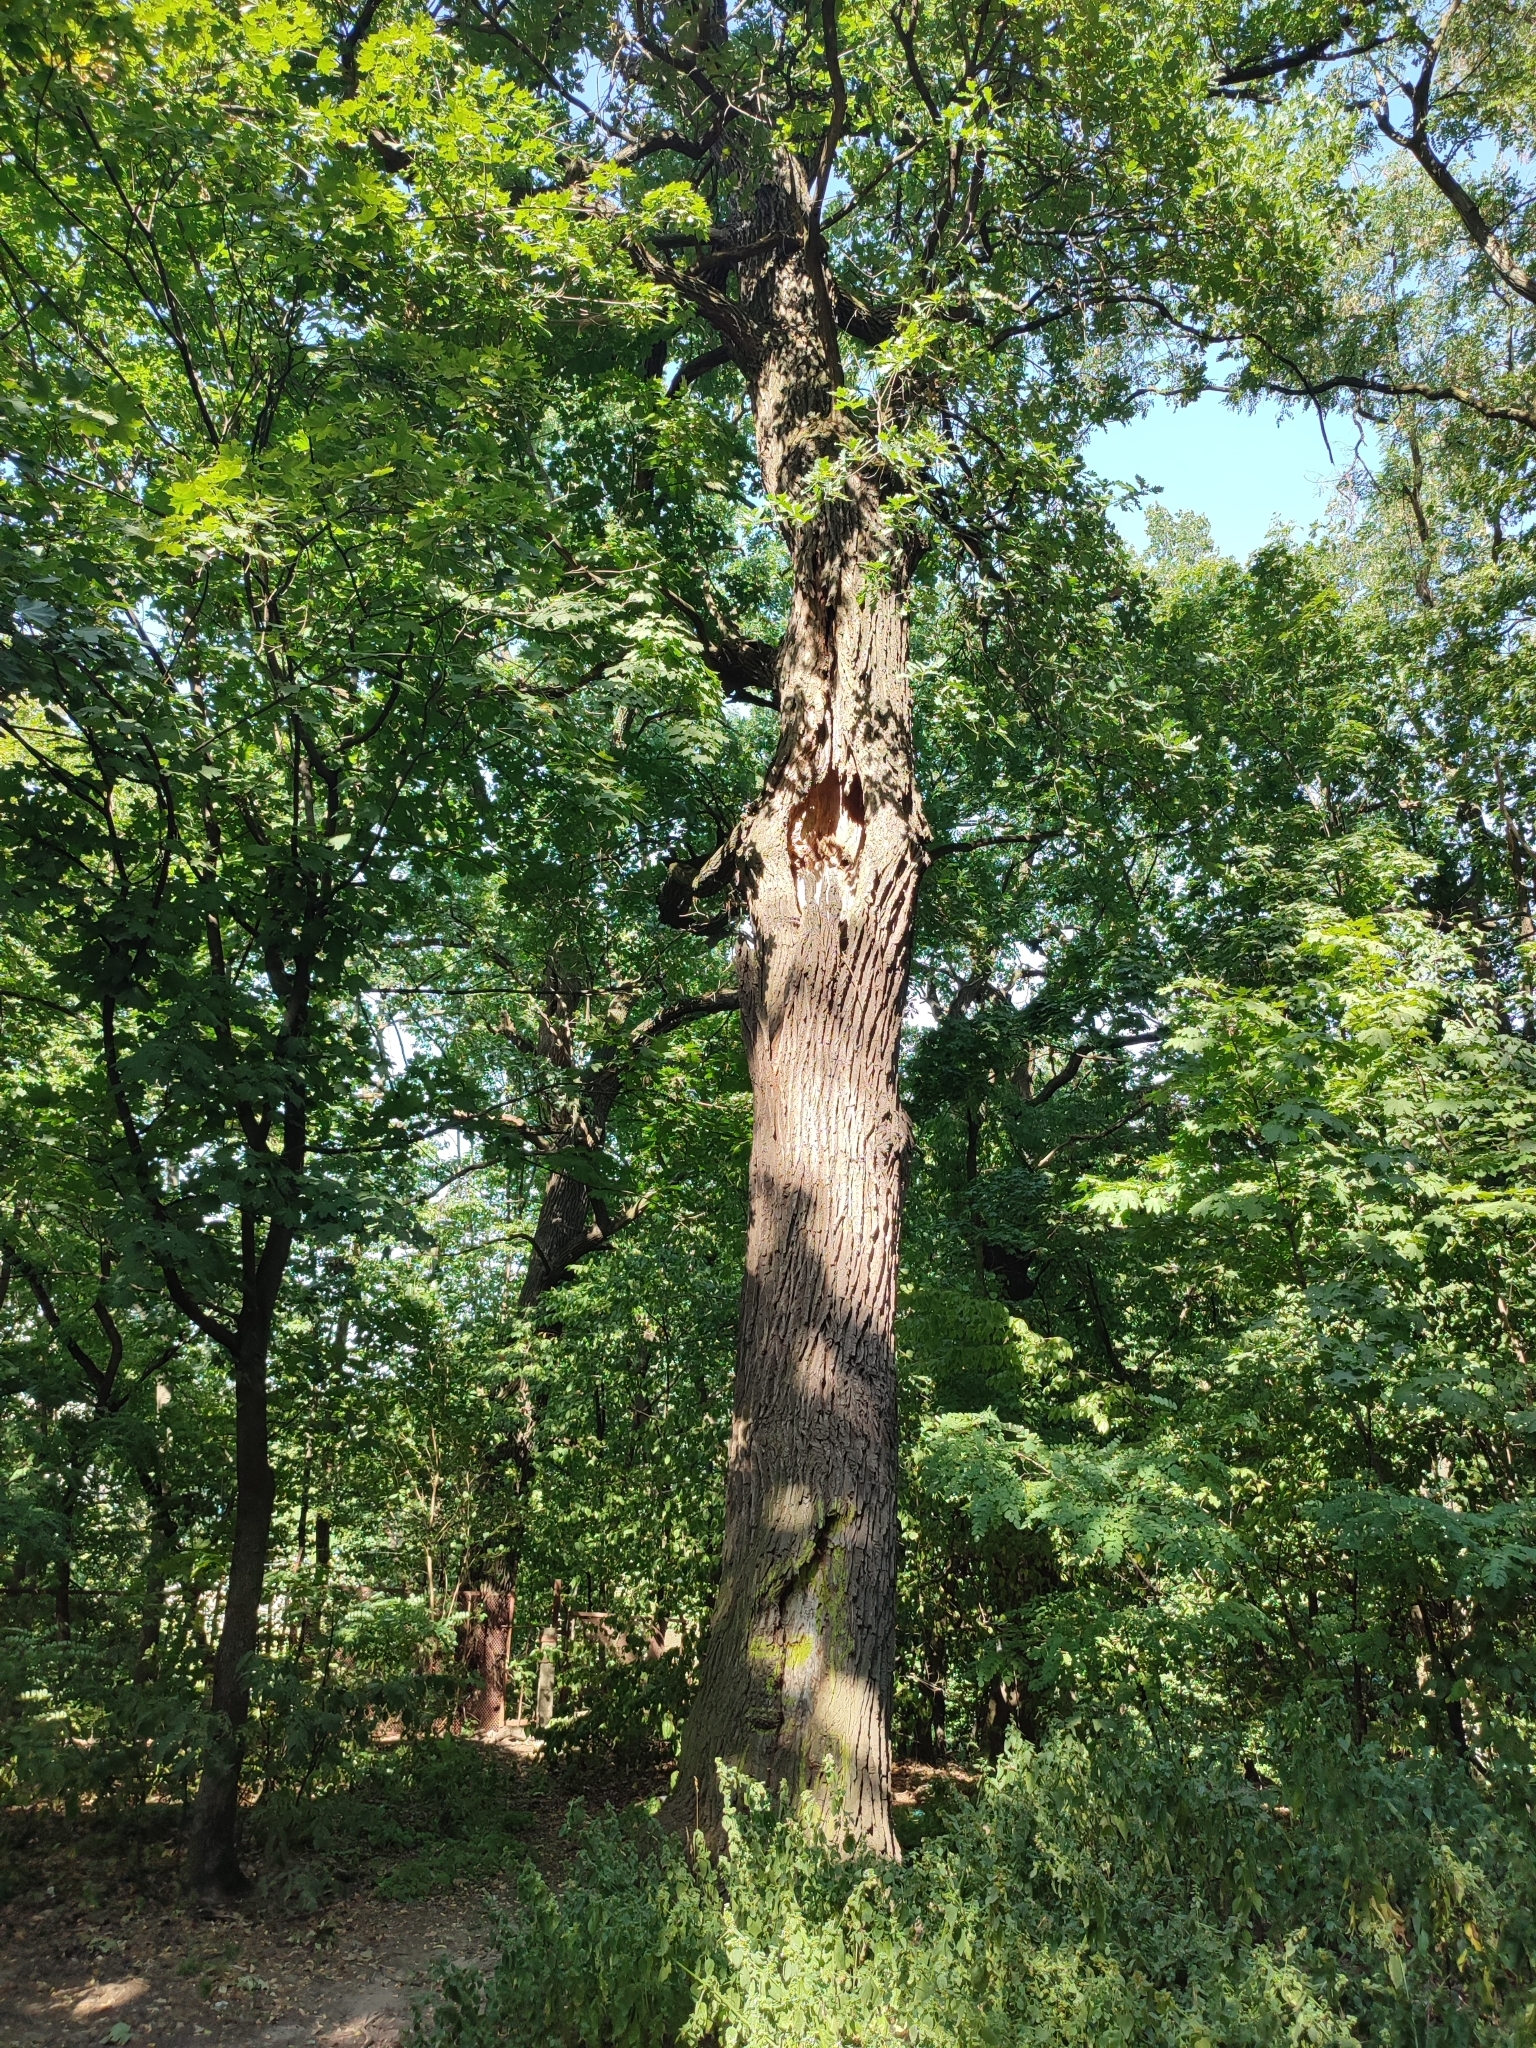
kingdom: Plantae
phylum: Tracheophyta
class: Magnoliopsida
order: Fagales
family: Fagaceae
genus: Quercus
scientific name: Quercus robur
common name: Pedunculate oak
